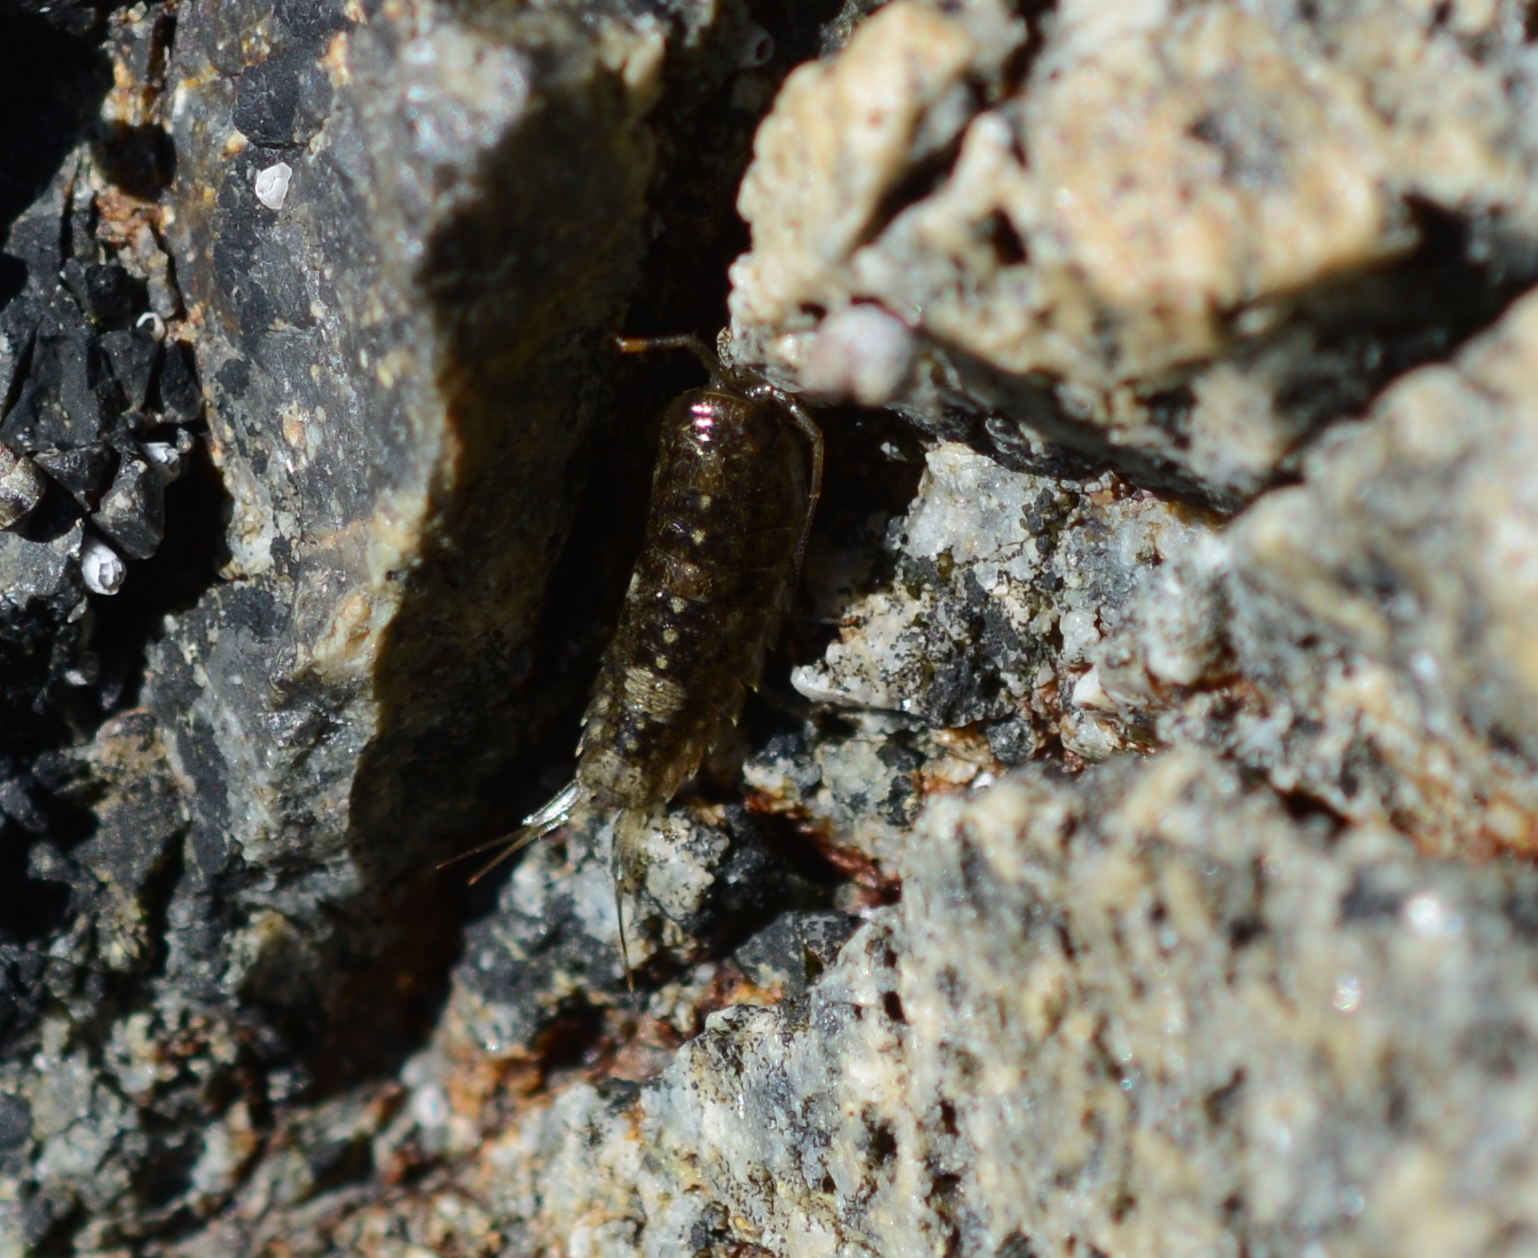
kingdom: Animalia
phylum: Arthropoda
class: Malacostraca
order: Isopoda
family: Ligiidae
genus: Ligia
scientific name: Ligia occidentalis
